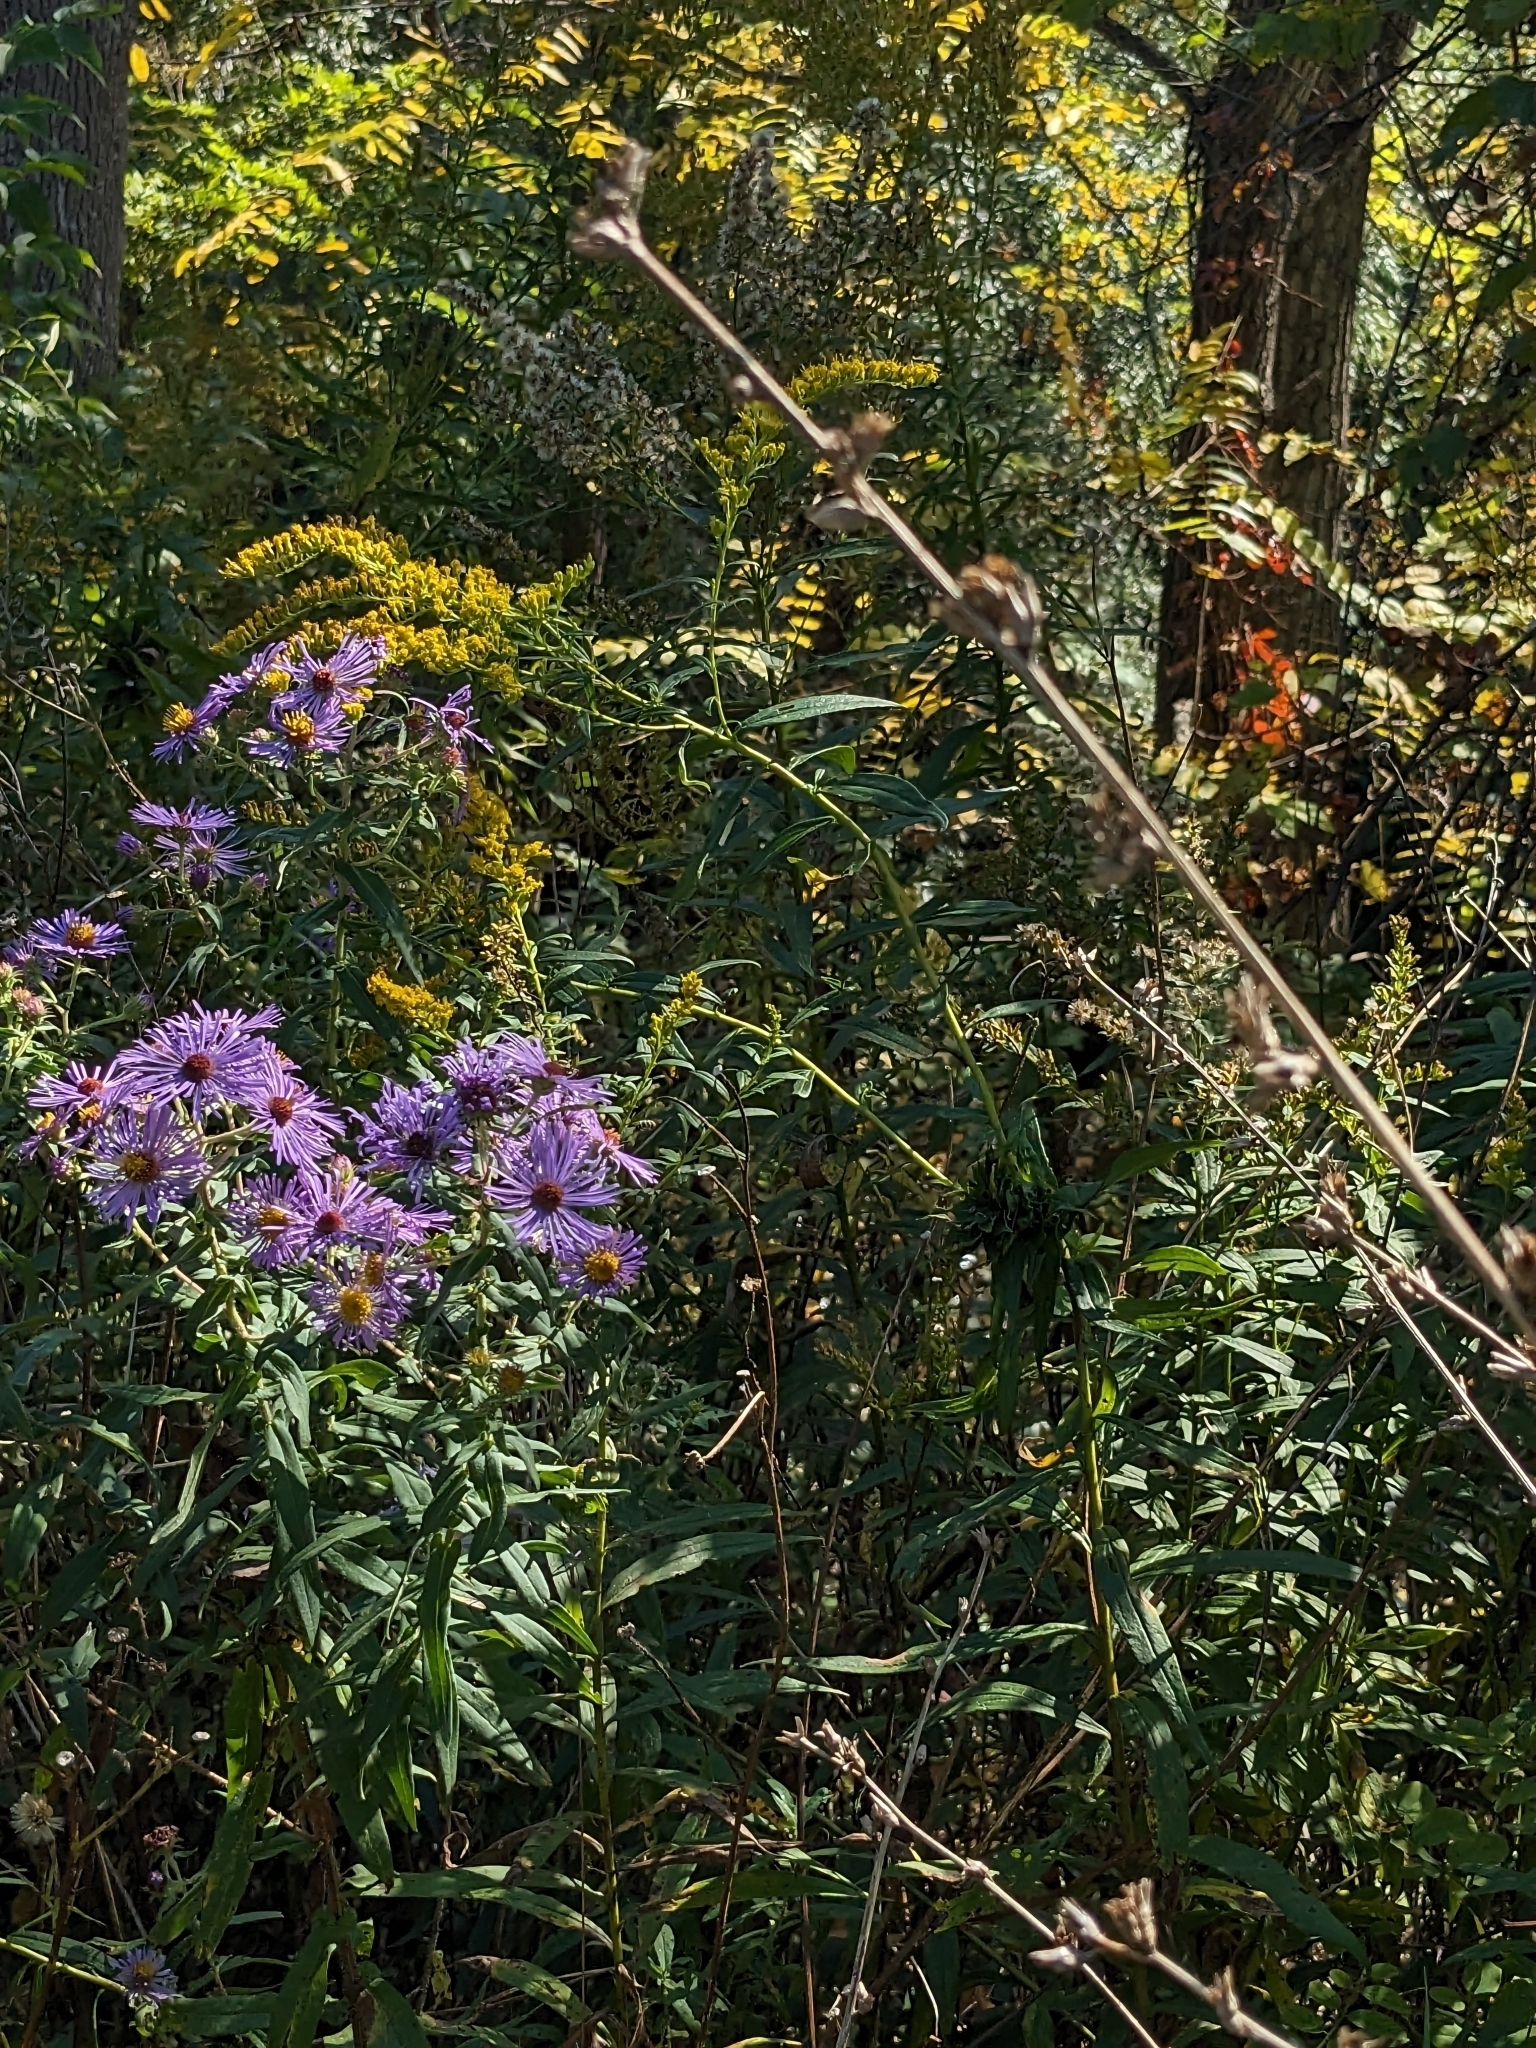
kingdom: Plantae
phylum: Tracheophyta
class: Magnoliopsida
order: Asterales
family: Asteraceae
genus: Symphyotrichum
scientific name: Symphyotrichum novae-angliae
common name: Michaelmas daisy
